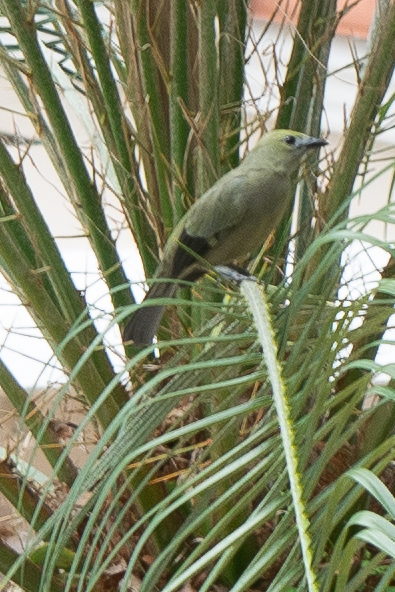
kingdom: Animalia
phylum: Chordata
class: Aves
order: Passeriformes
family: Thraupidae
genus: Thraupis
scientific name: Thraupis palmarum
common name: Palm tanager
